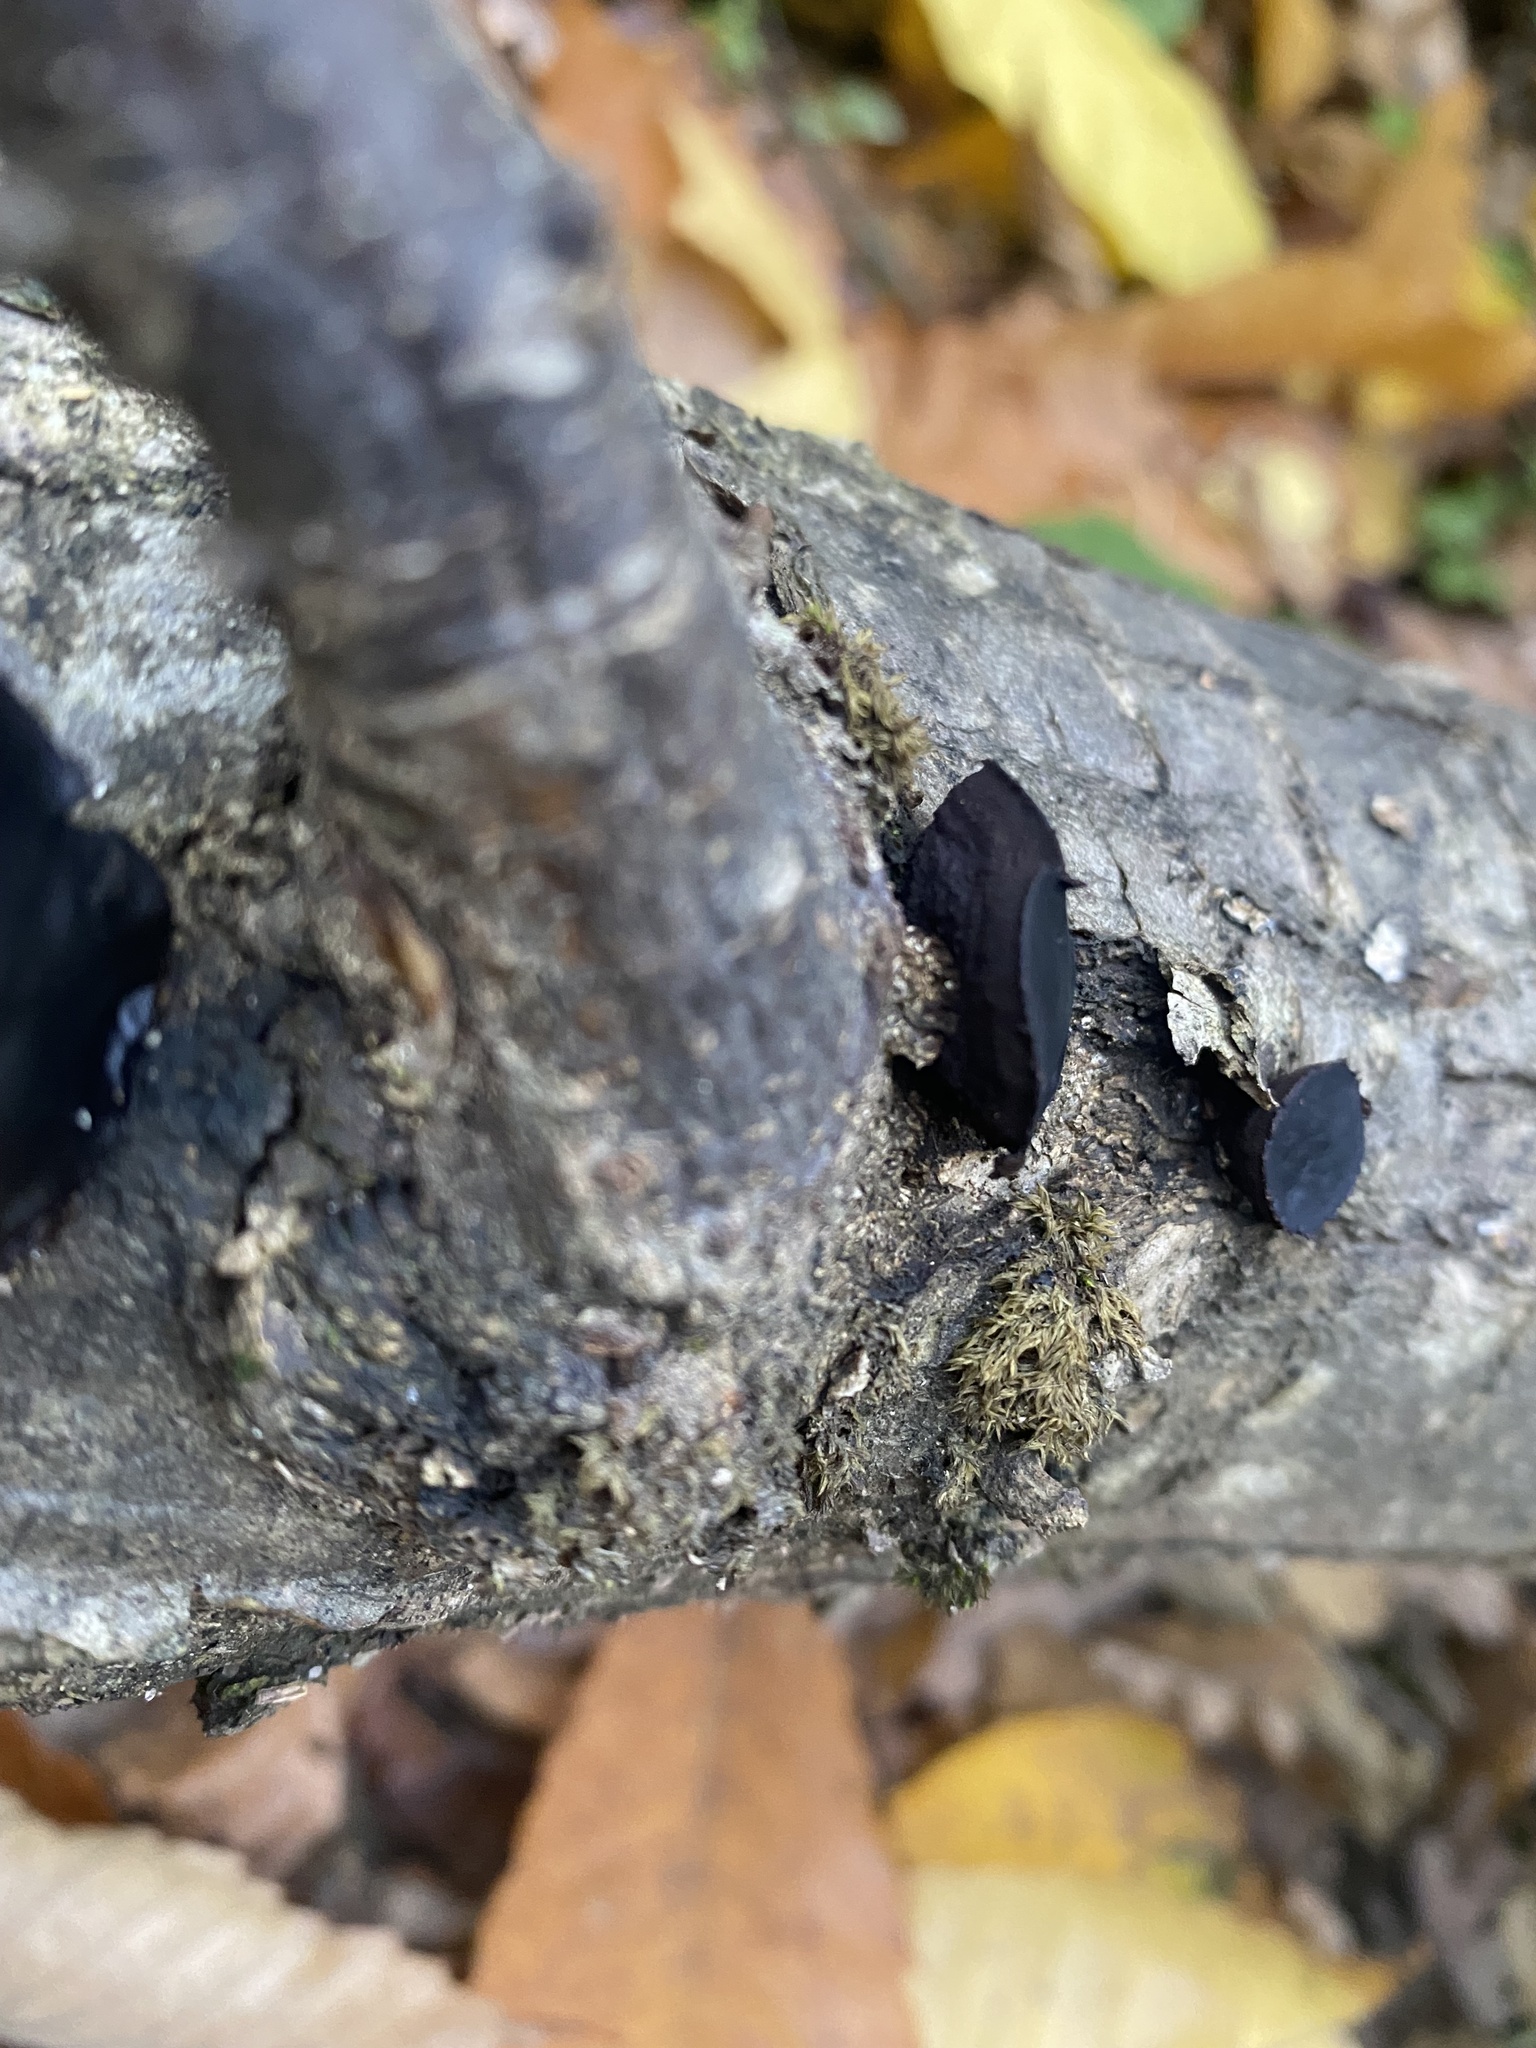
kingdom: Fungi
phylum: Ascomycota
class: Leotiomycetes
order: Phacidiales
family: Phacidiaceae
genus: Bulgaria
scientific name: Bulgaria inquinans
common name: Black bulgar
